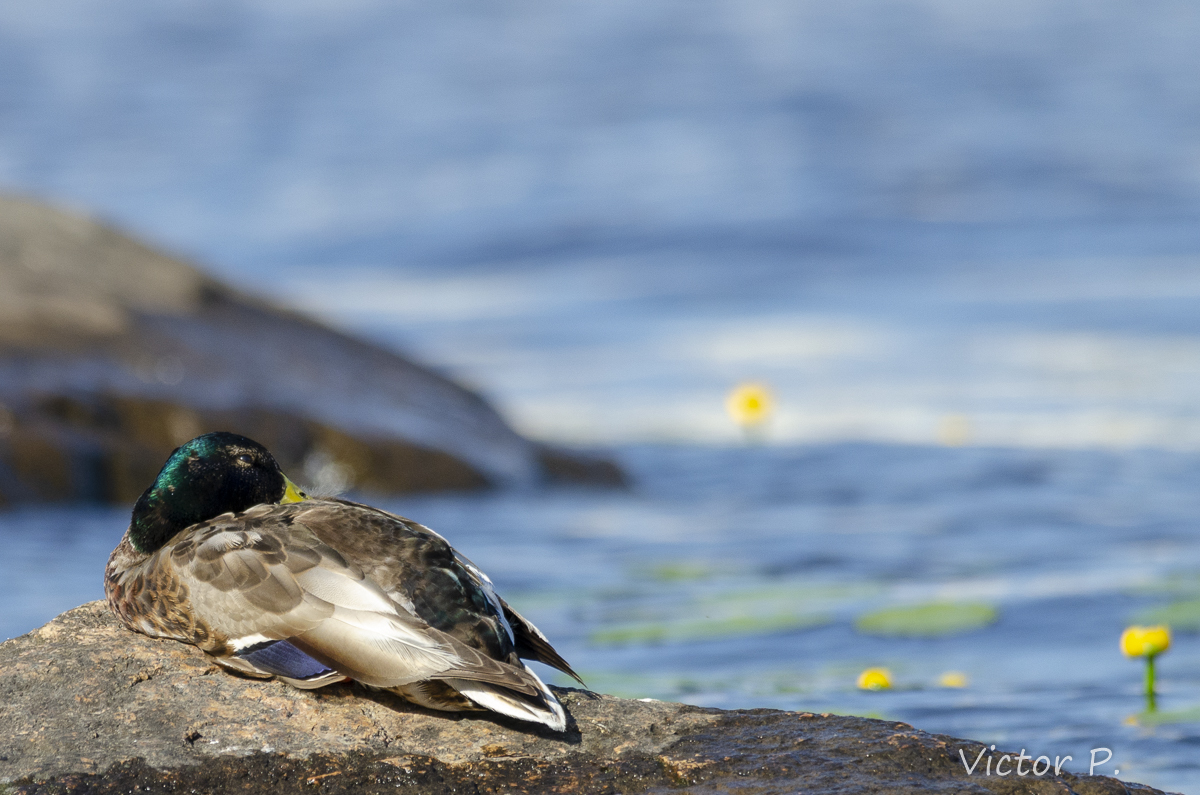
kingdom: Animalia
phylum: Chordata
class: Aves
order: Anseriformes
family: Anatidae
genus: Anas
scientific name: Anas platyrhynchos
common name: Mallard
